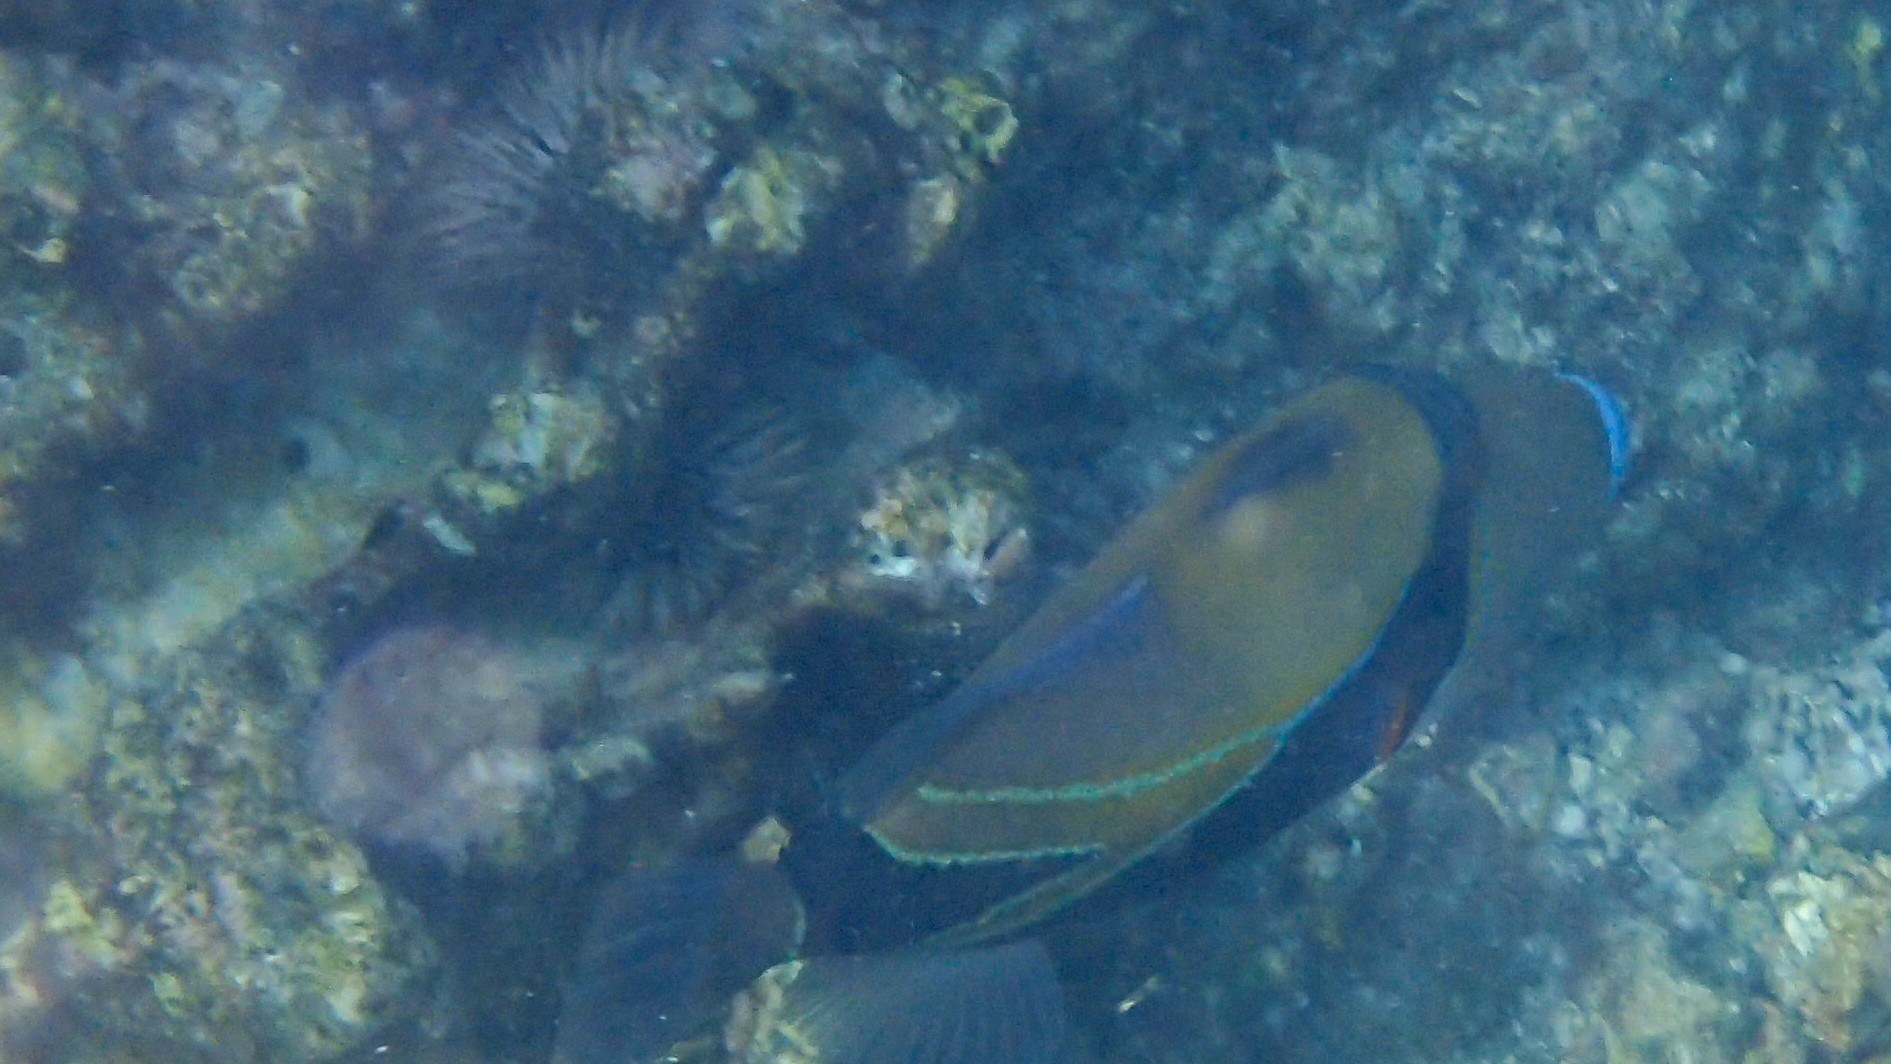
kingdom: Animalia
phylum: Chordata
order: Tetraodontiformes
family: Balistidae
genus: Rhinecanthus
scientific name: Rhinecanthus rectangulus
